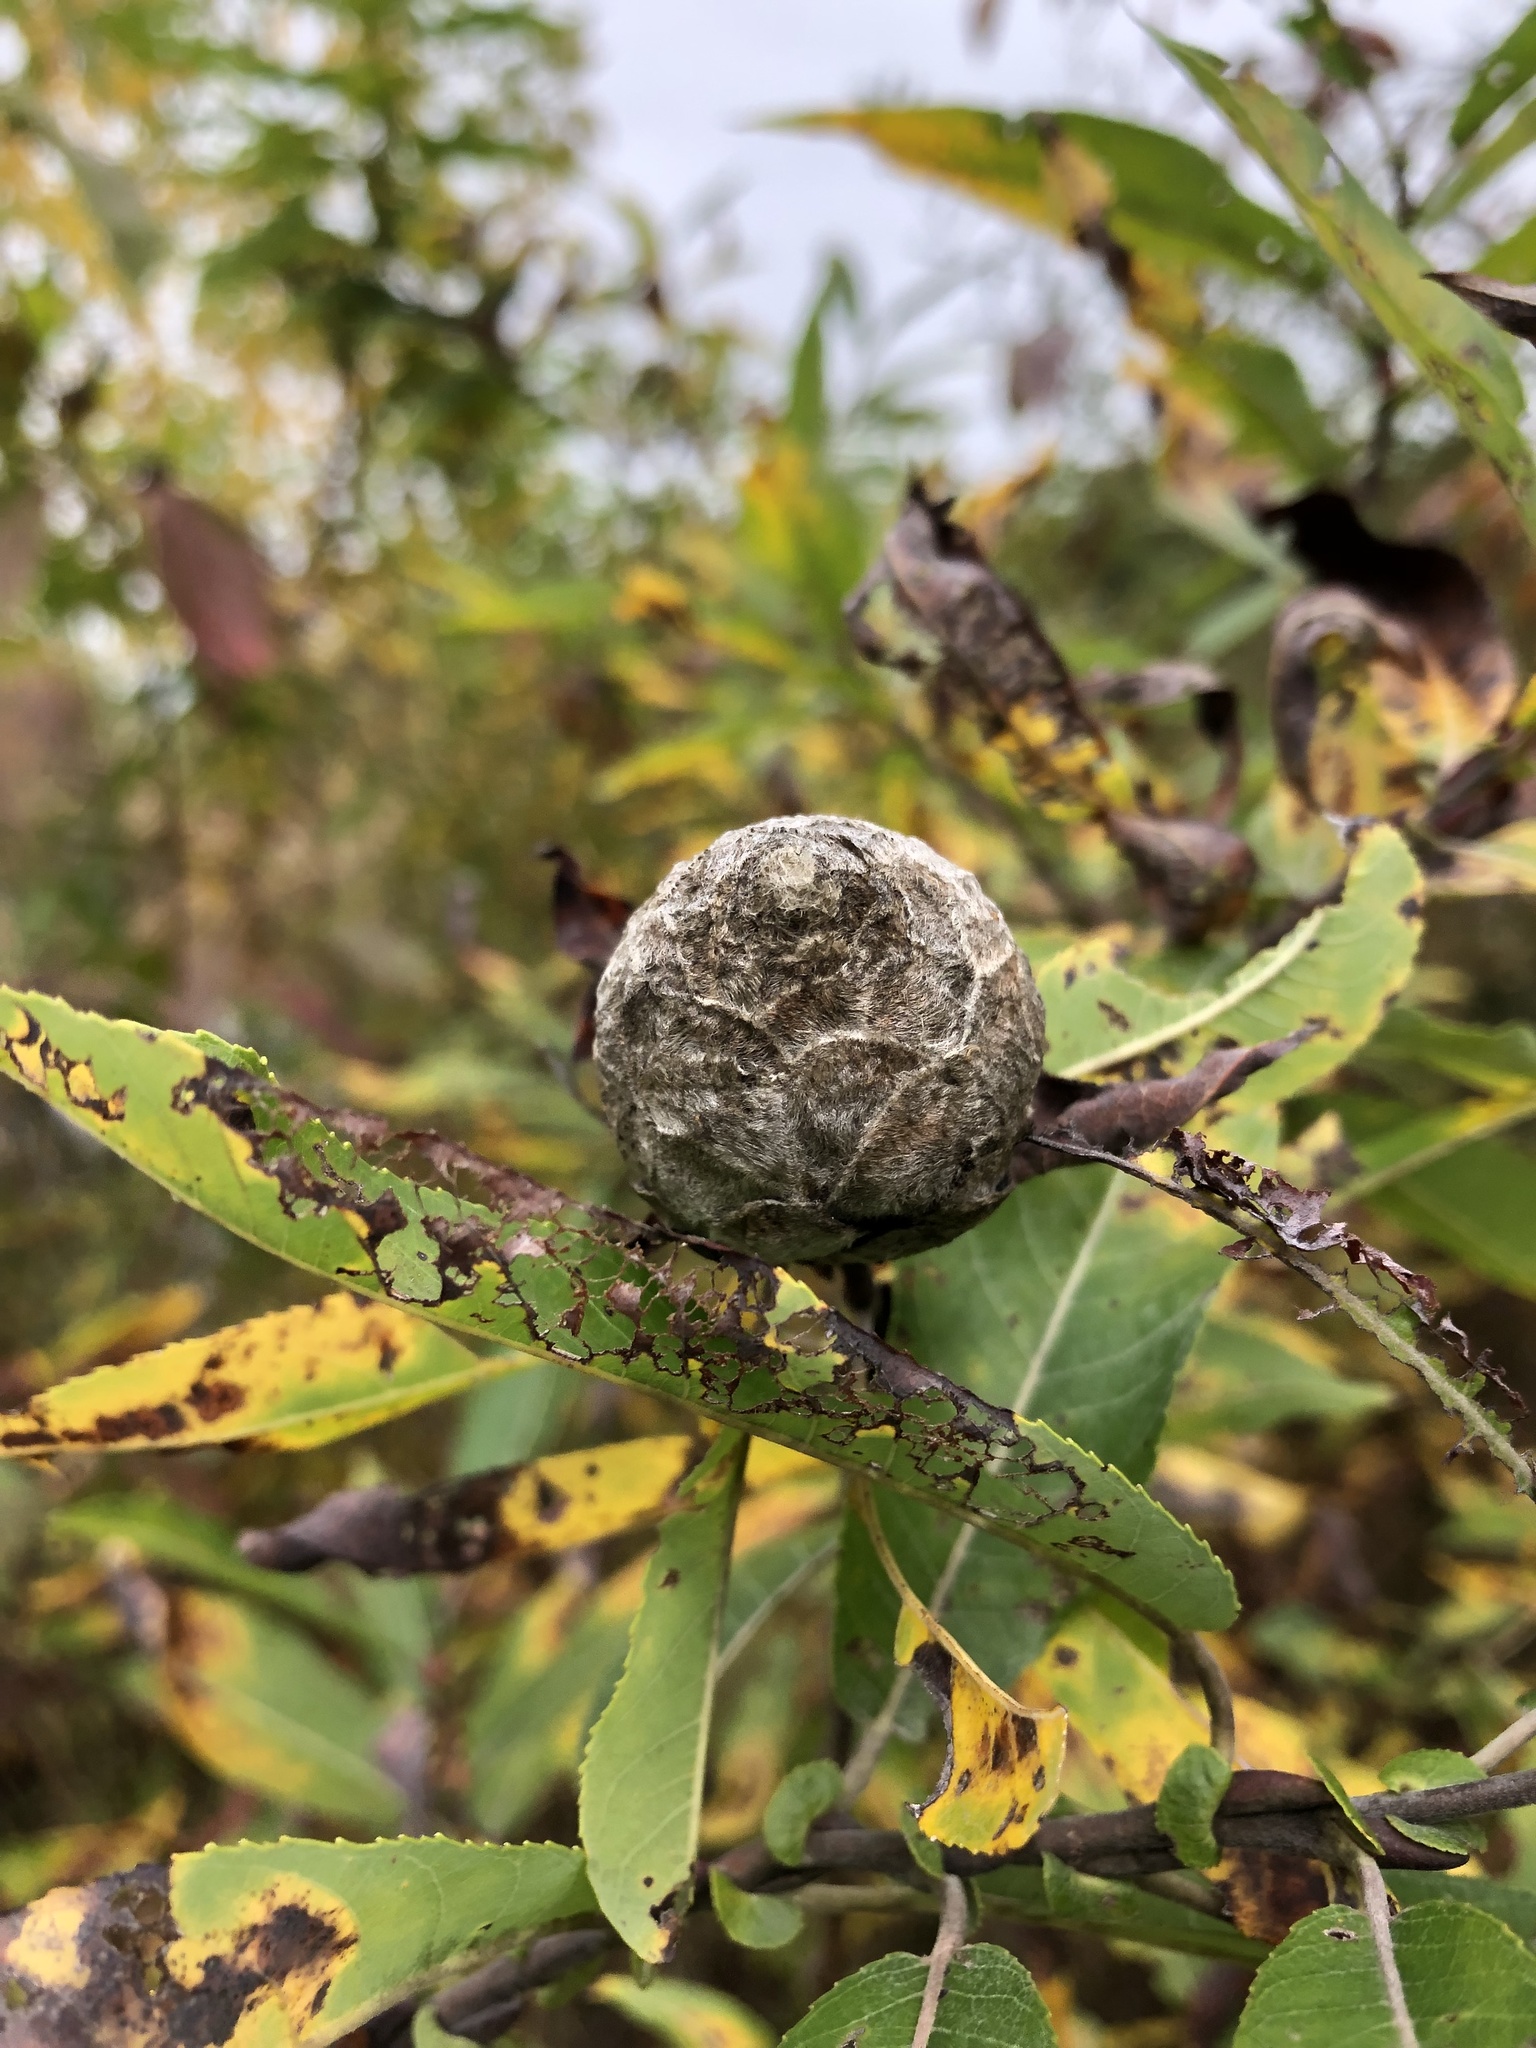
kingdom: Animalia
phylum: Arthropoda
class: Insecta
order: Diptera
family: Cecidomyiidae
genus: Rabdophaga
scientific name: Rabdophaga strobiloides
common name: Willow pinecone gall midge
